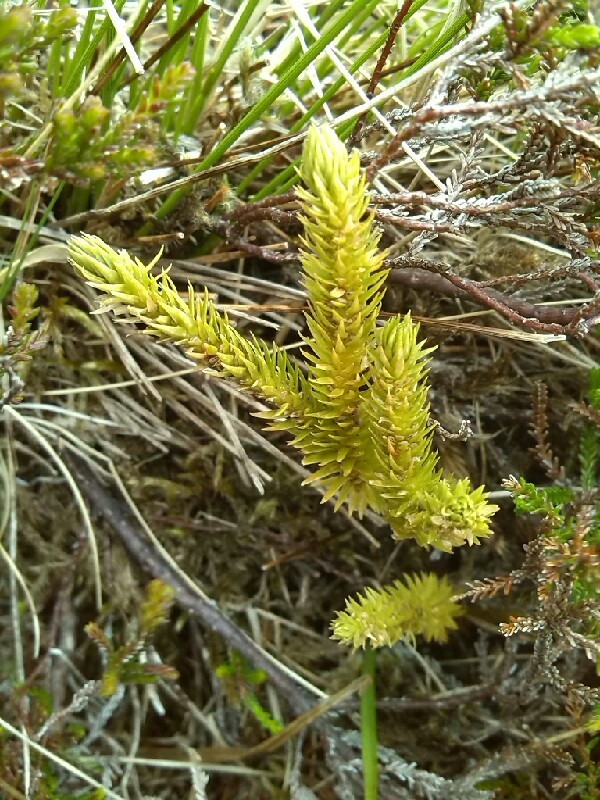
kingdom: Plantae
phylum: Tracheophyta
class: Lycopodiopsida
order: Lycopodiales
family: Lycopodiaceae
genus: Huperzia
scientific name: Huperzia selago
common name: Northern firmoss
